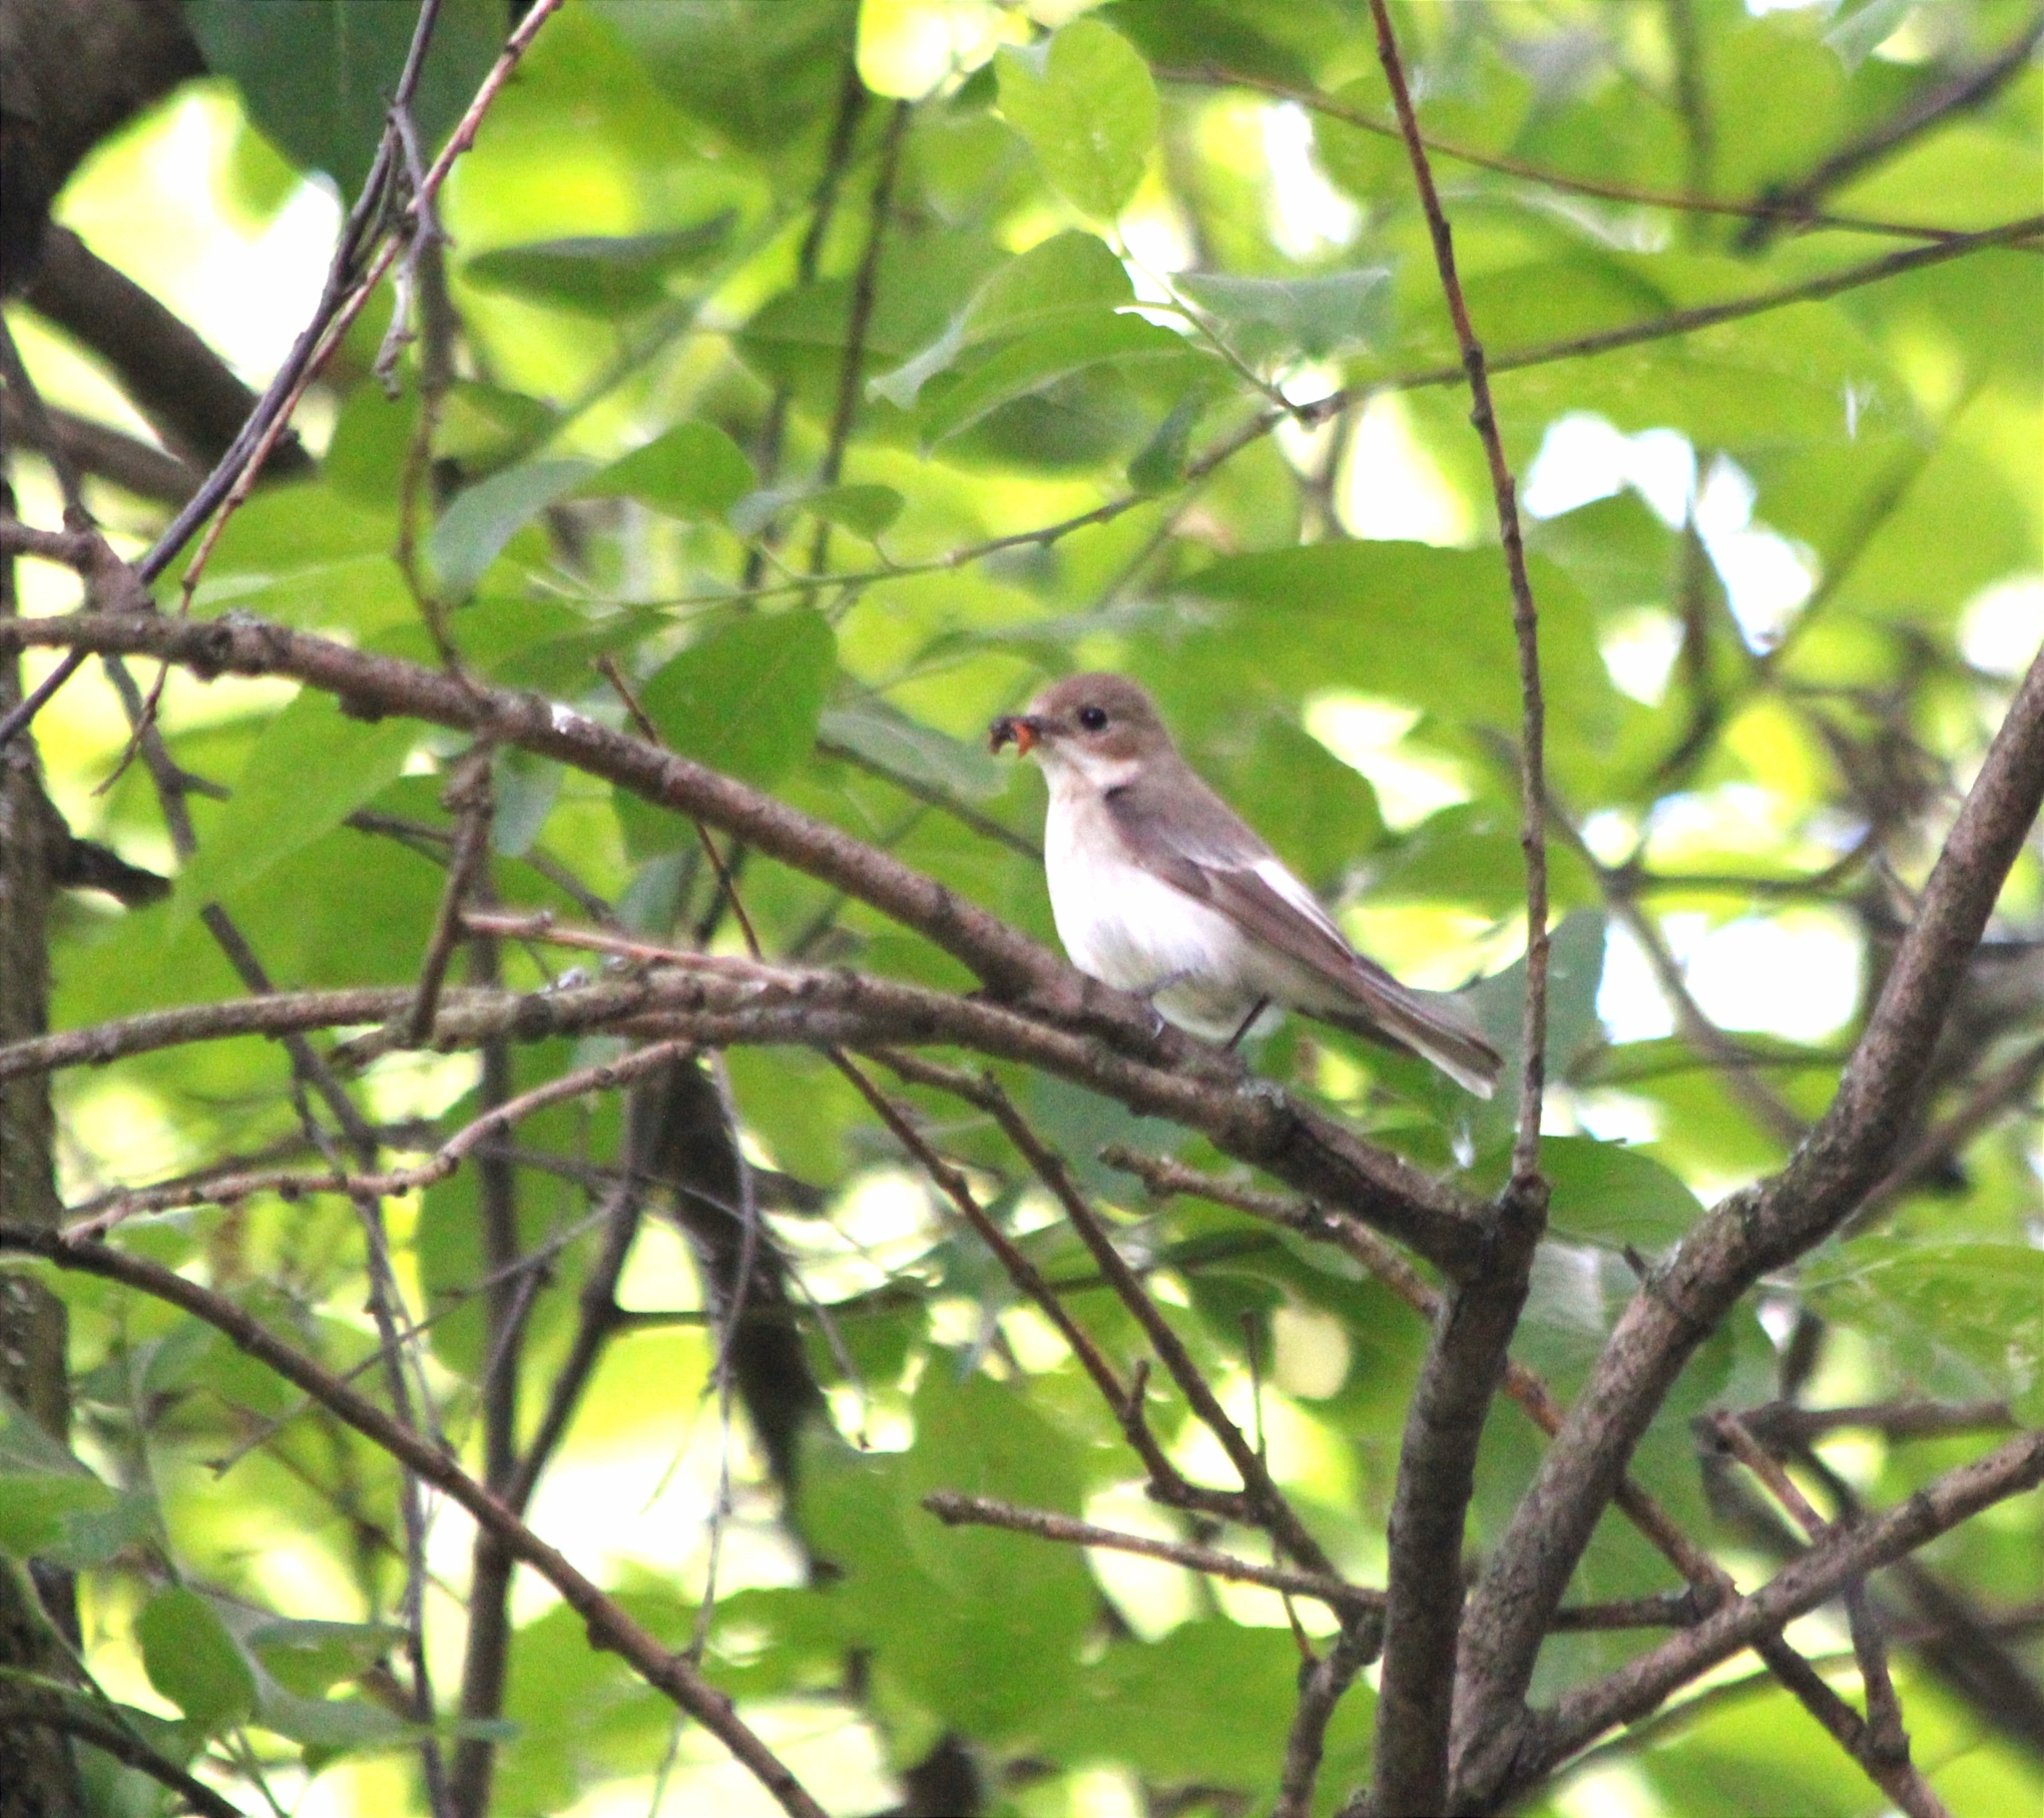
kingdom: Animalia
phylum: Chordata
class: Aves
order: Passeriformes
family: Muscicapidae
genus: Ficedula
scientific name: Ficedula hypoleuca
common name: European pied flycatcher
